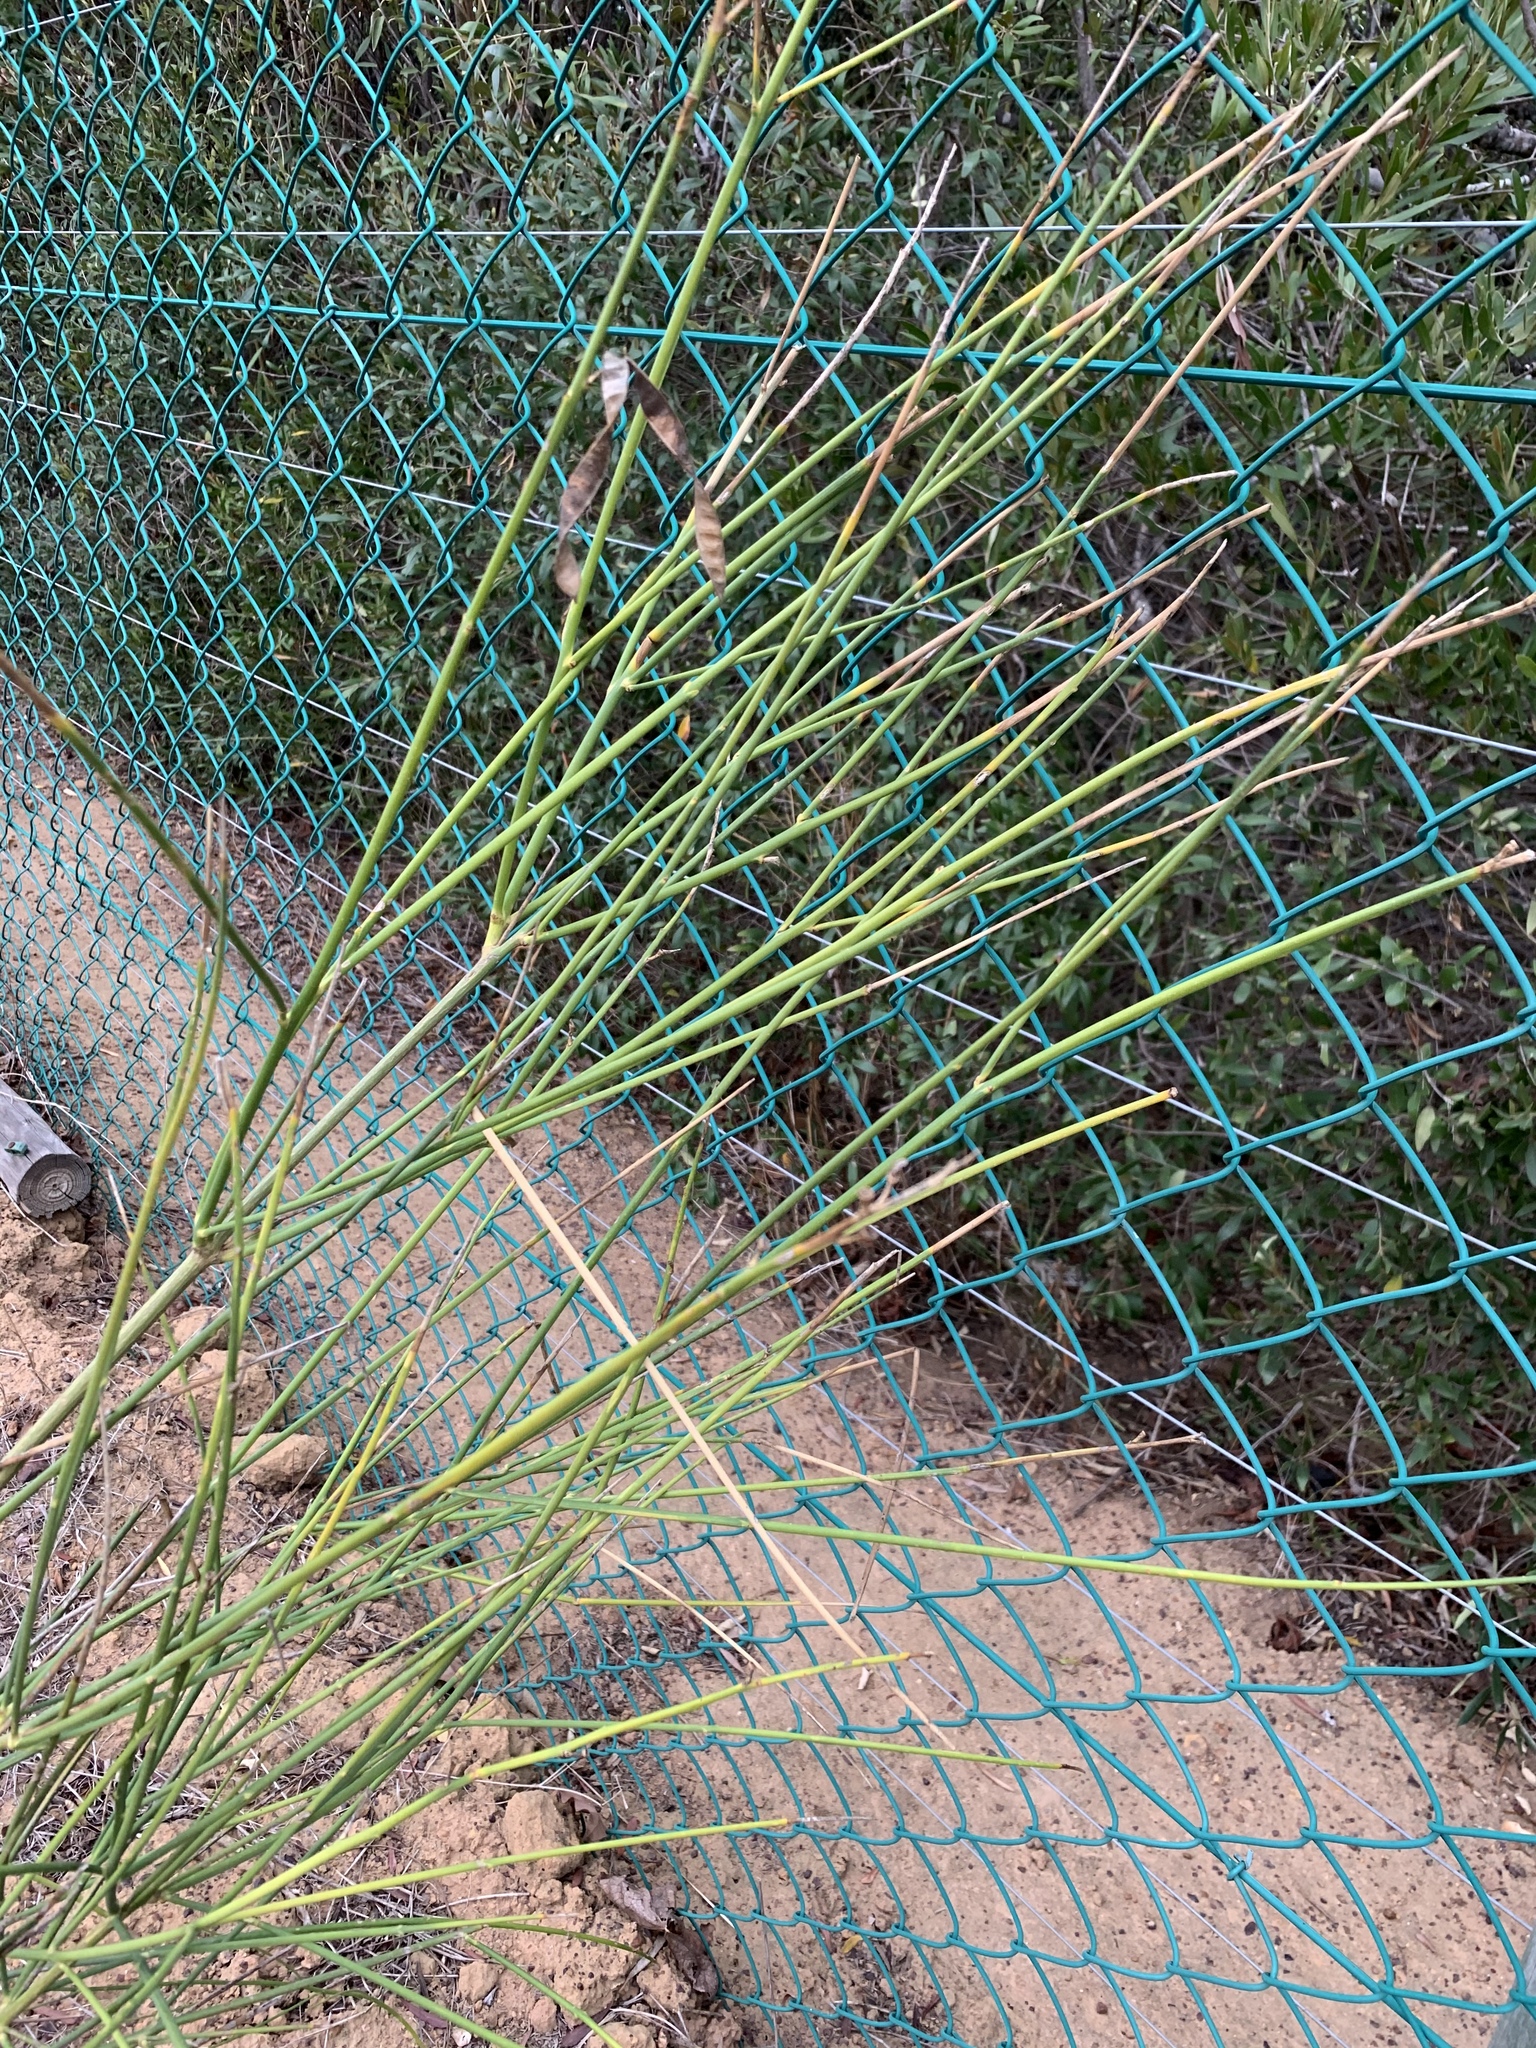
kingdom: Plantae
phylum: Tracheophyta
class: Magnoliopsida
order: Fabales
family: Fabaceae
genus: Spartium
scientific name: Spartium junceum
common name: Spanish broom
